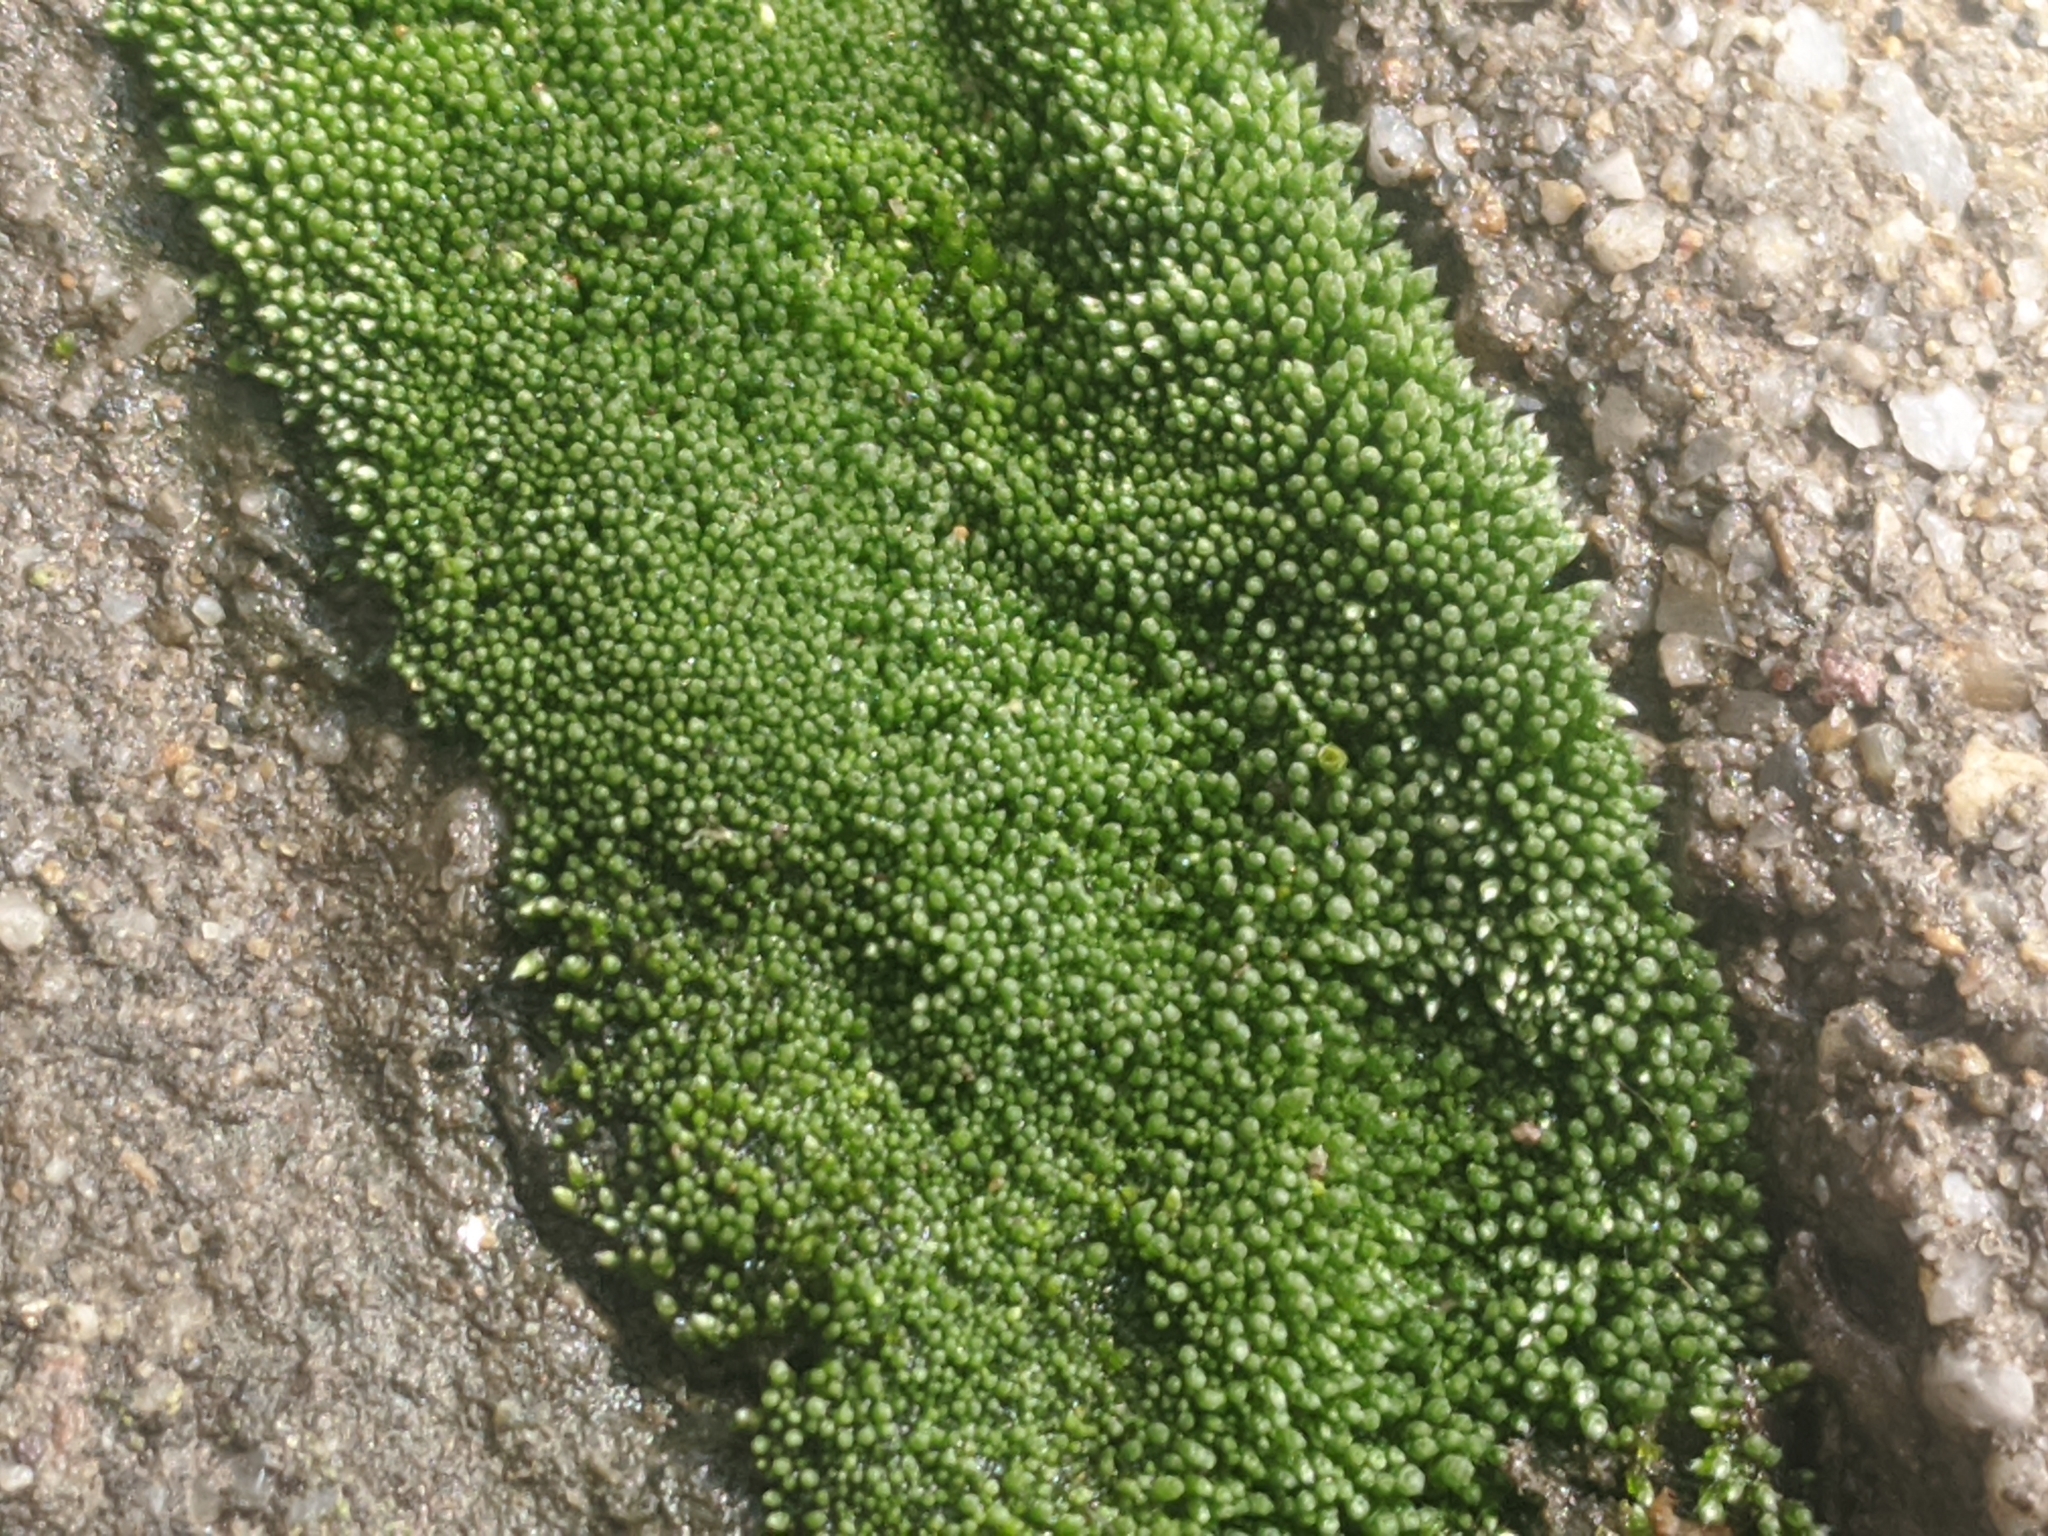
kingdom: Plantae
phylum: Bryophyta
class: Bryopsida
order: Bryales
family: Bryaceae
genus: Bryum
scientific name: Bryum argenteum
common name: Silver-moss
